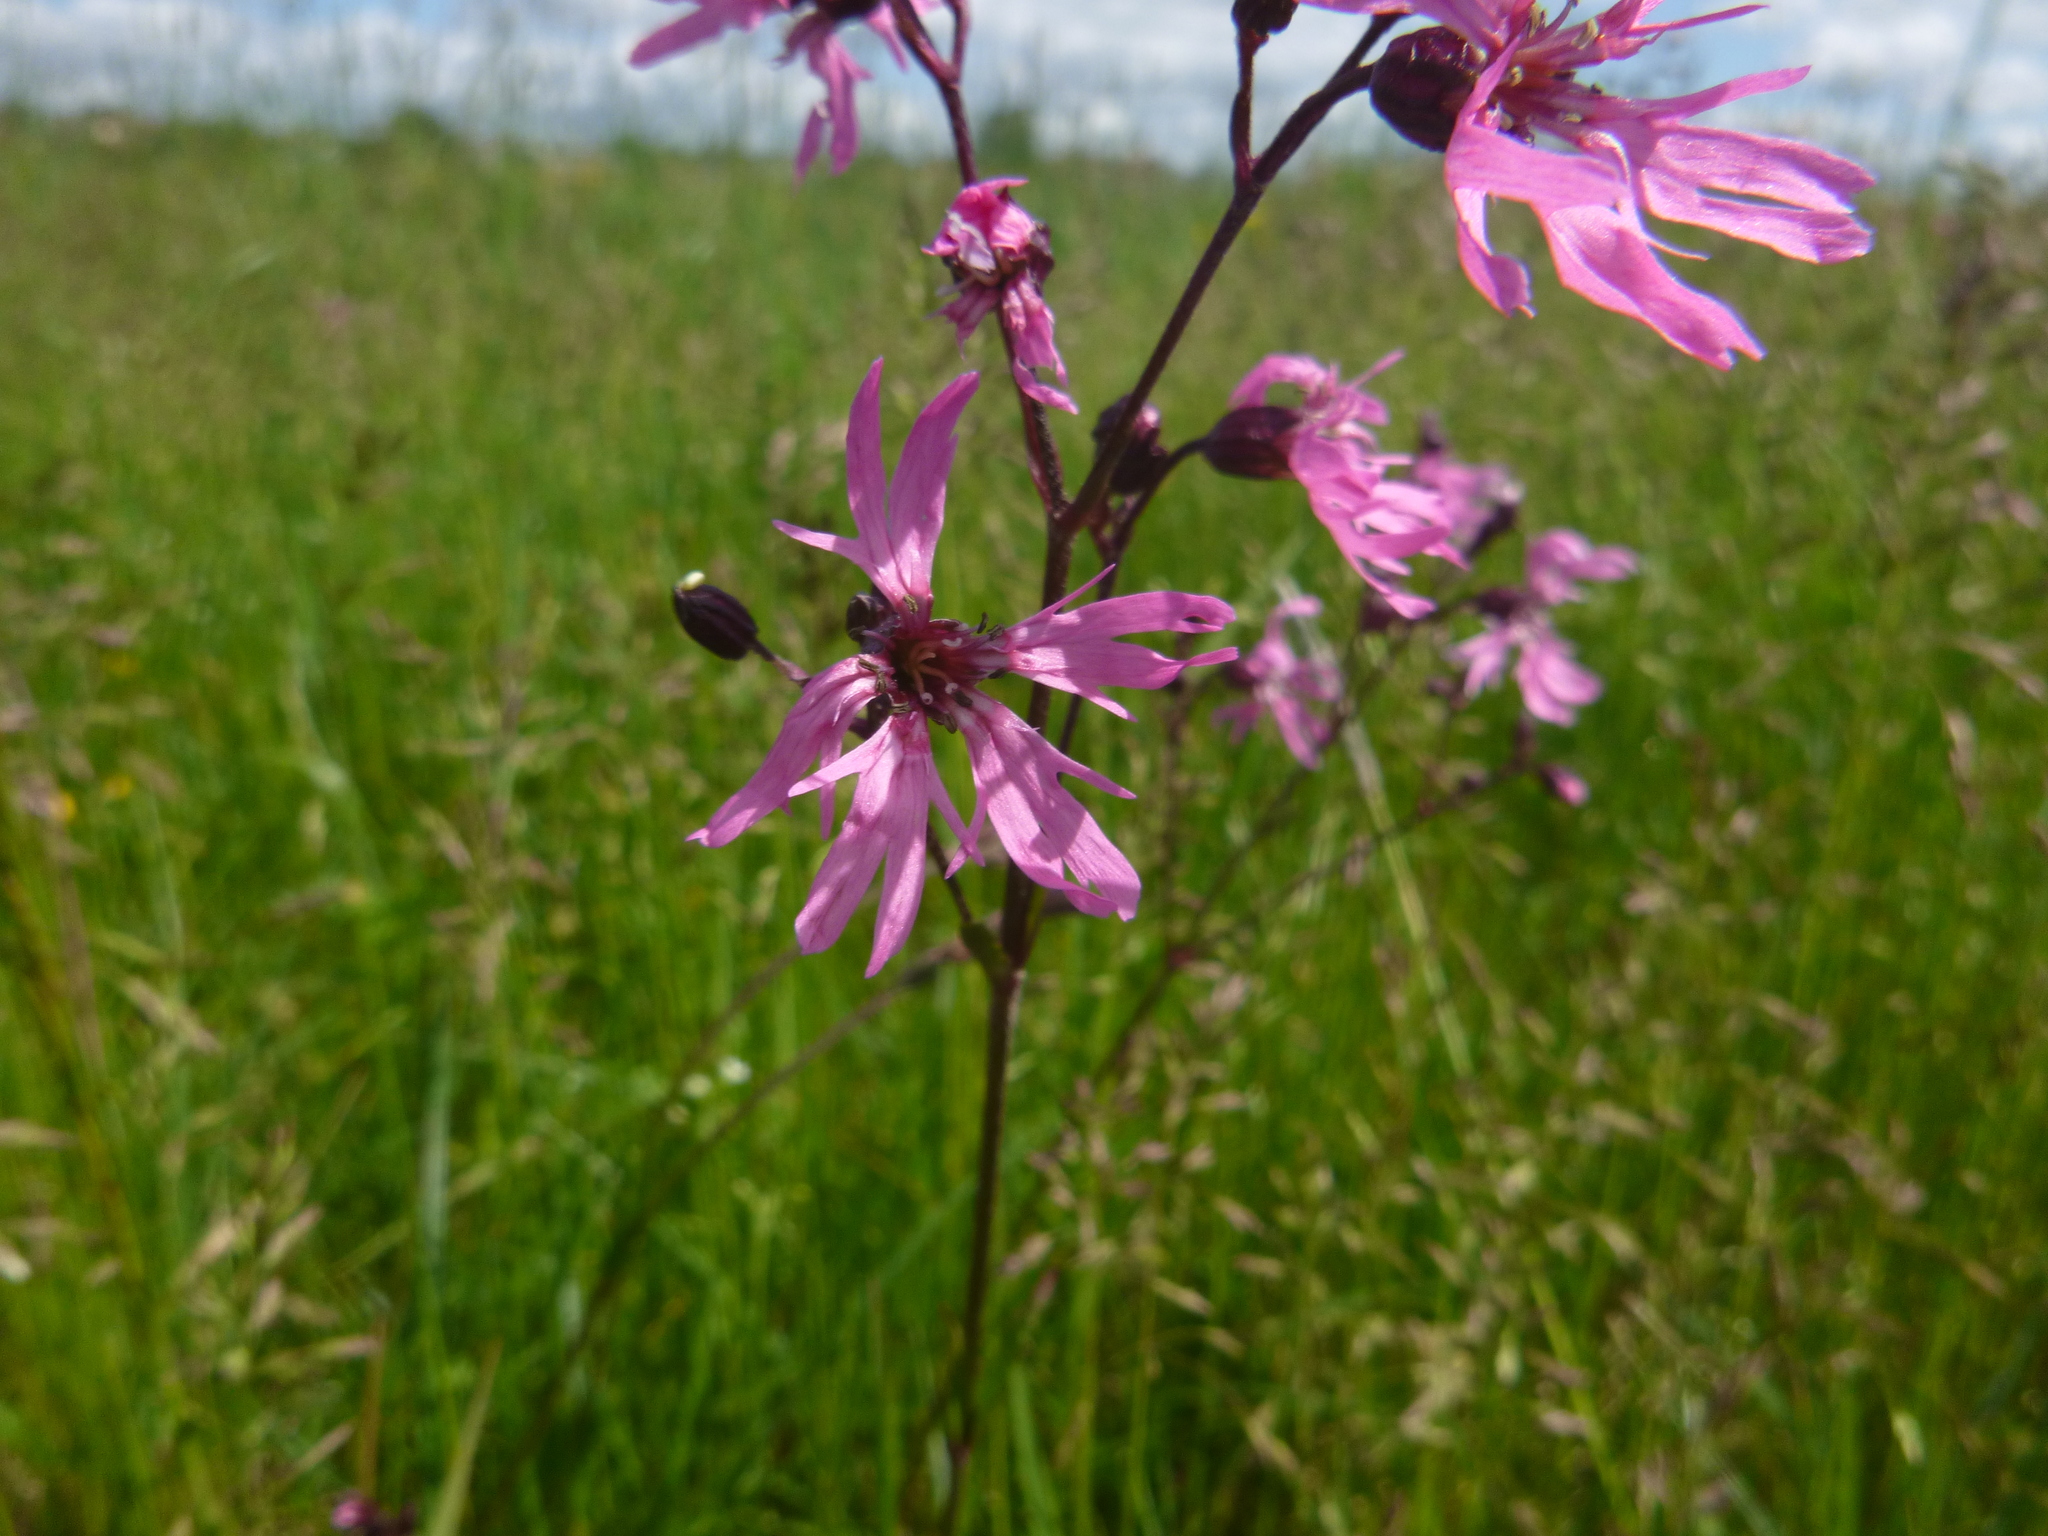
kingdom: Plantae
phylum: Tracheophyta
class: Magnoliopsida
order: Caryophyllales
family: Caryophyllaceae
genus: Silene
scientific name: Silene flos-cuculi
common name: Ragged-robin
